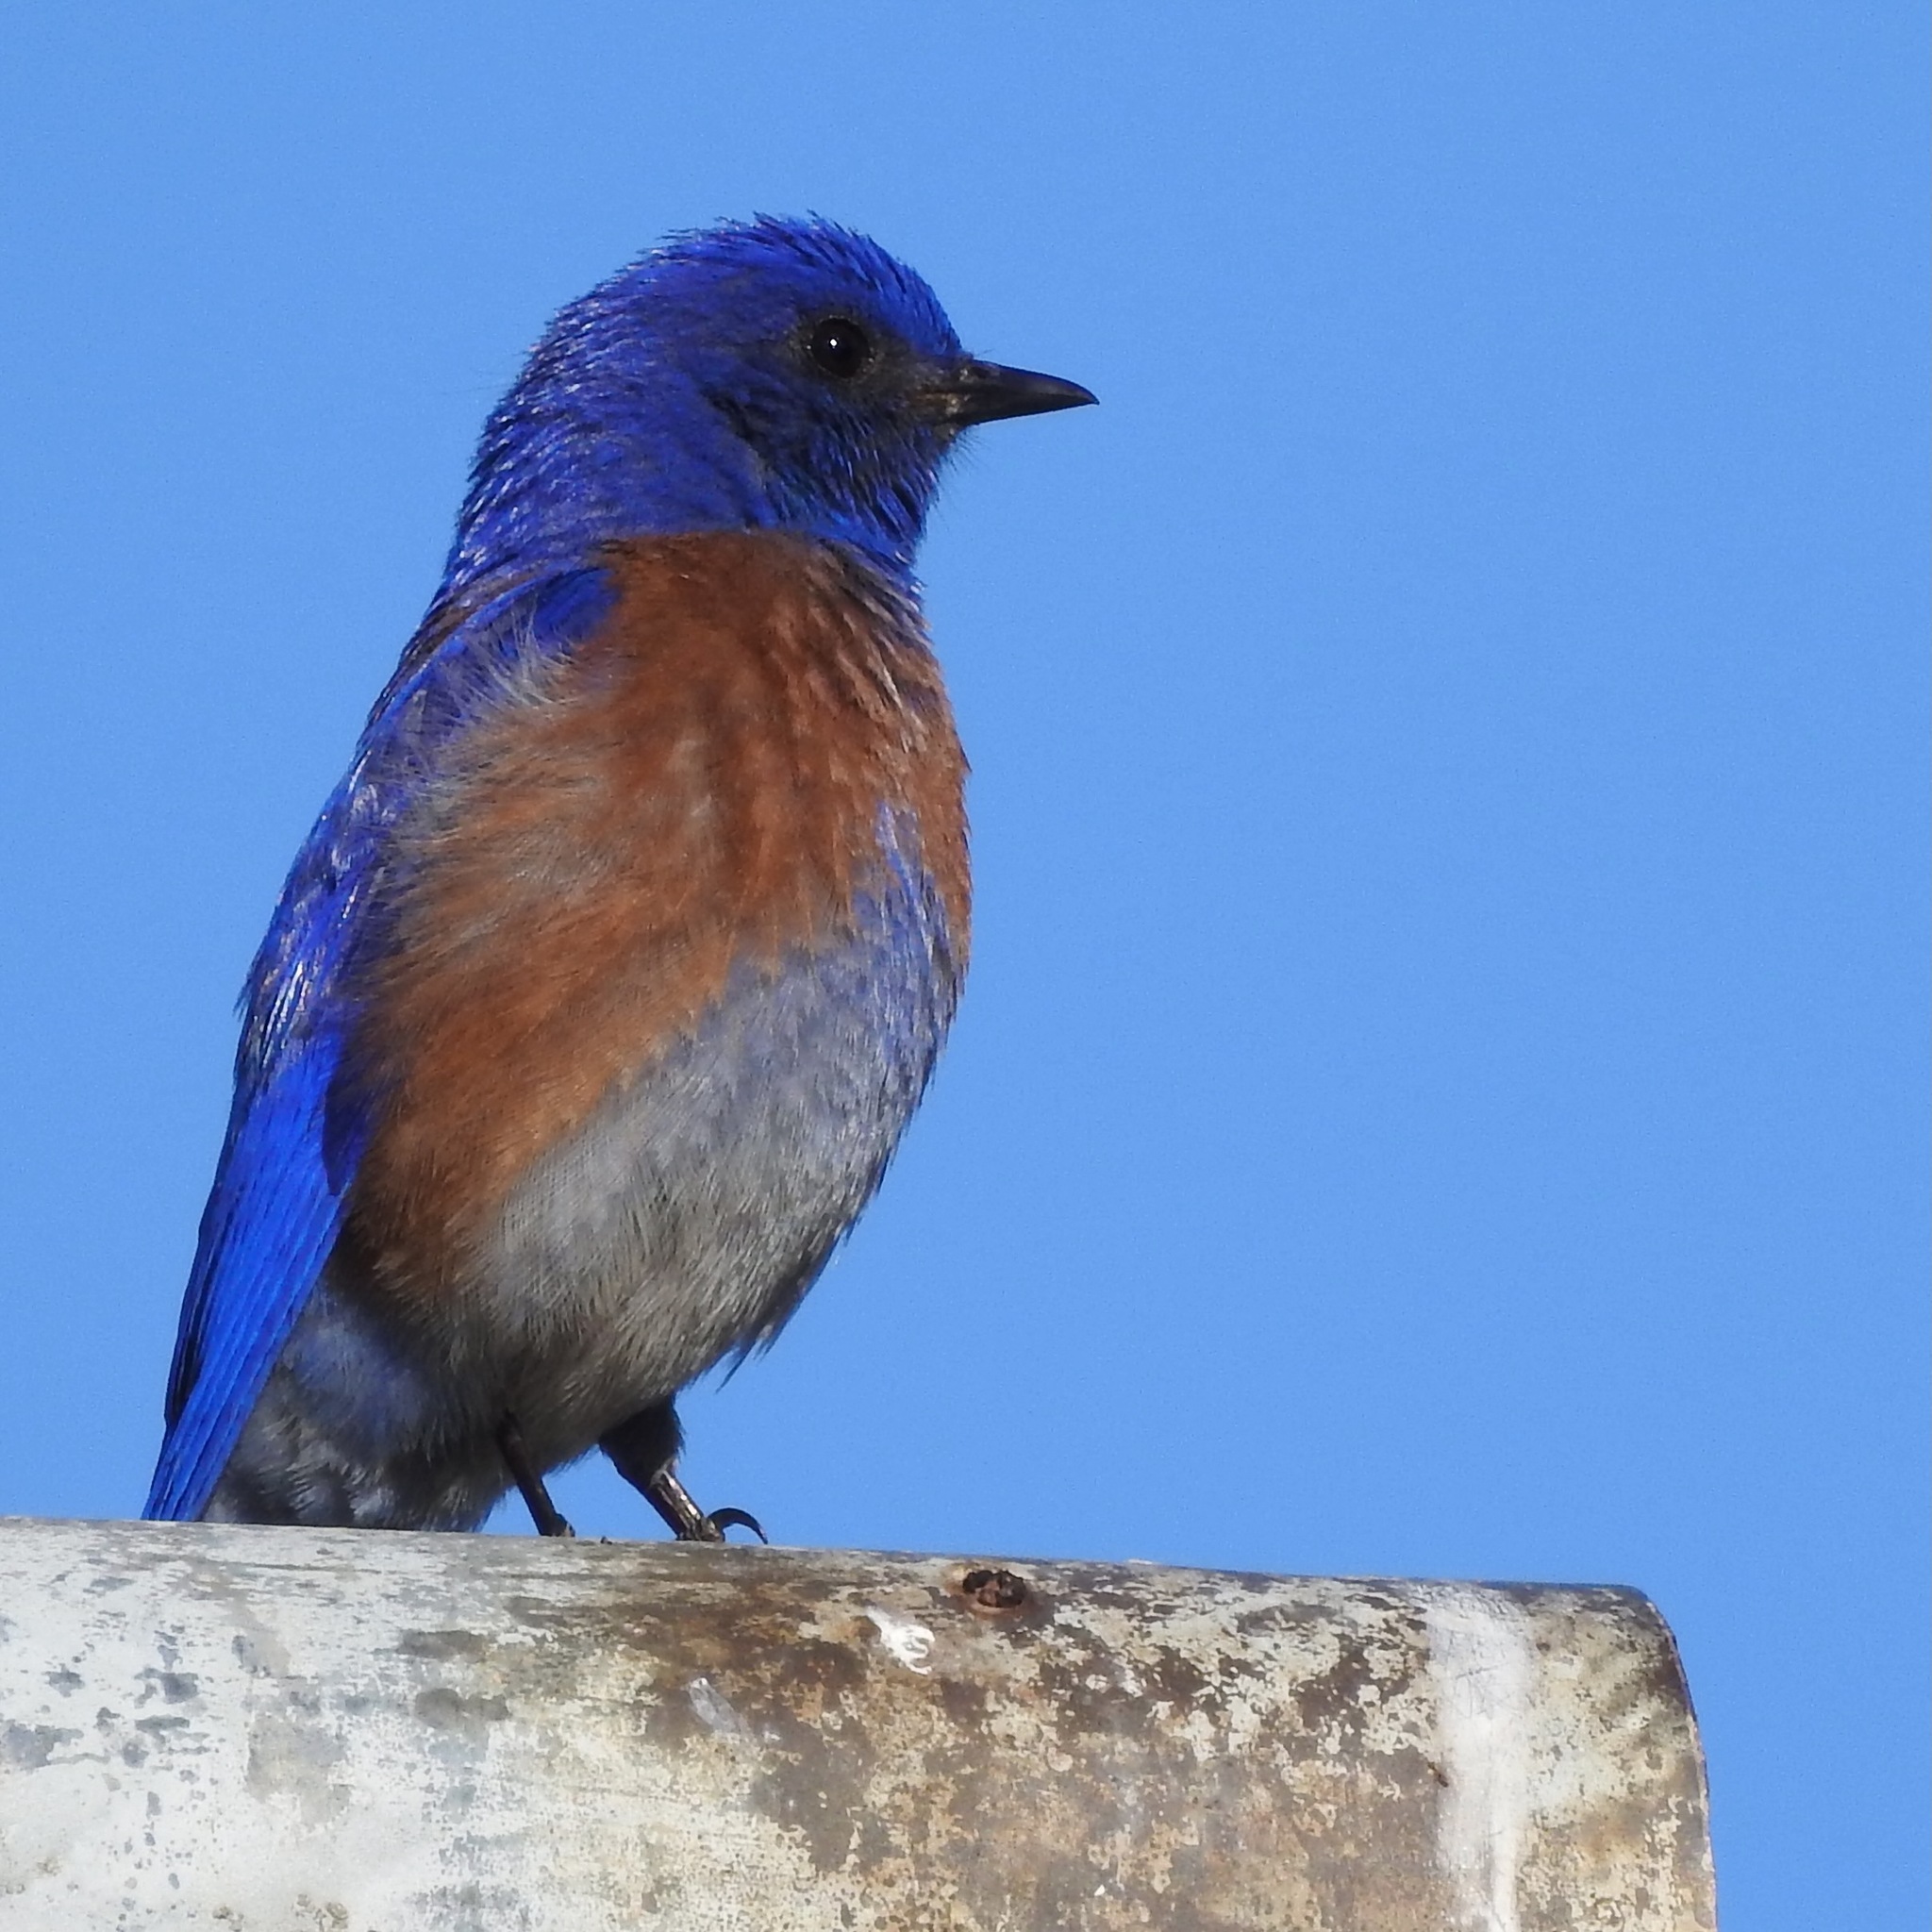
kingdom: Animalia
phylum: Chordata
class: Aves
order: Passeriformes
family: Turdidae
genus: Sialia
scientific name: Sialia mexicana
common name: Western bluebird
